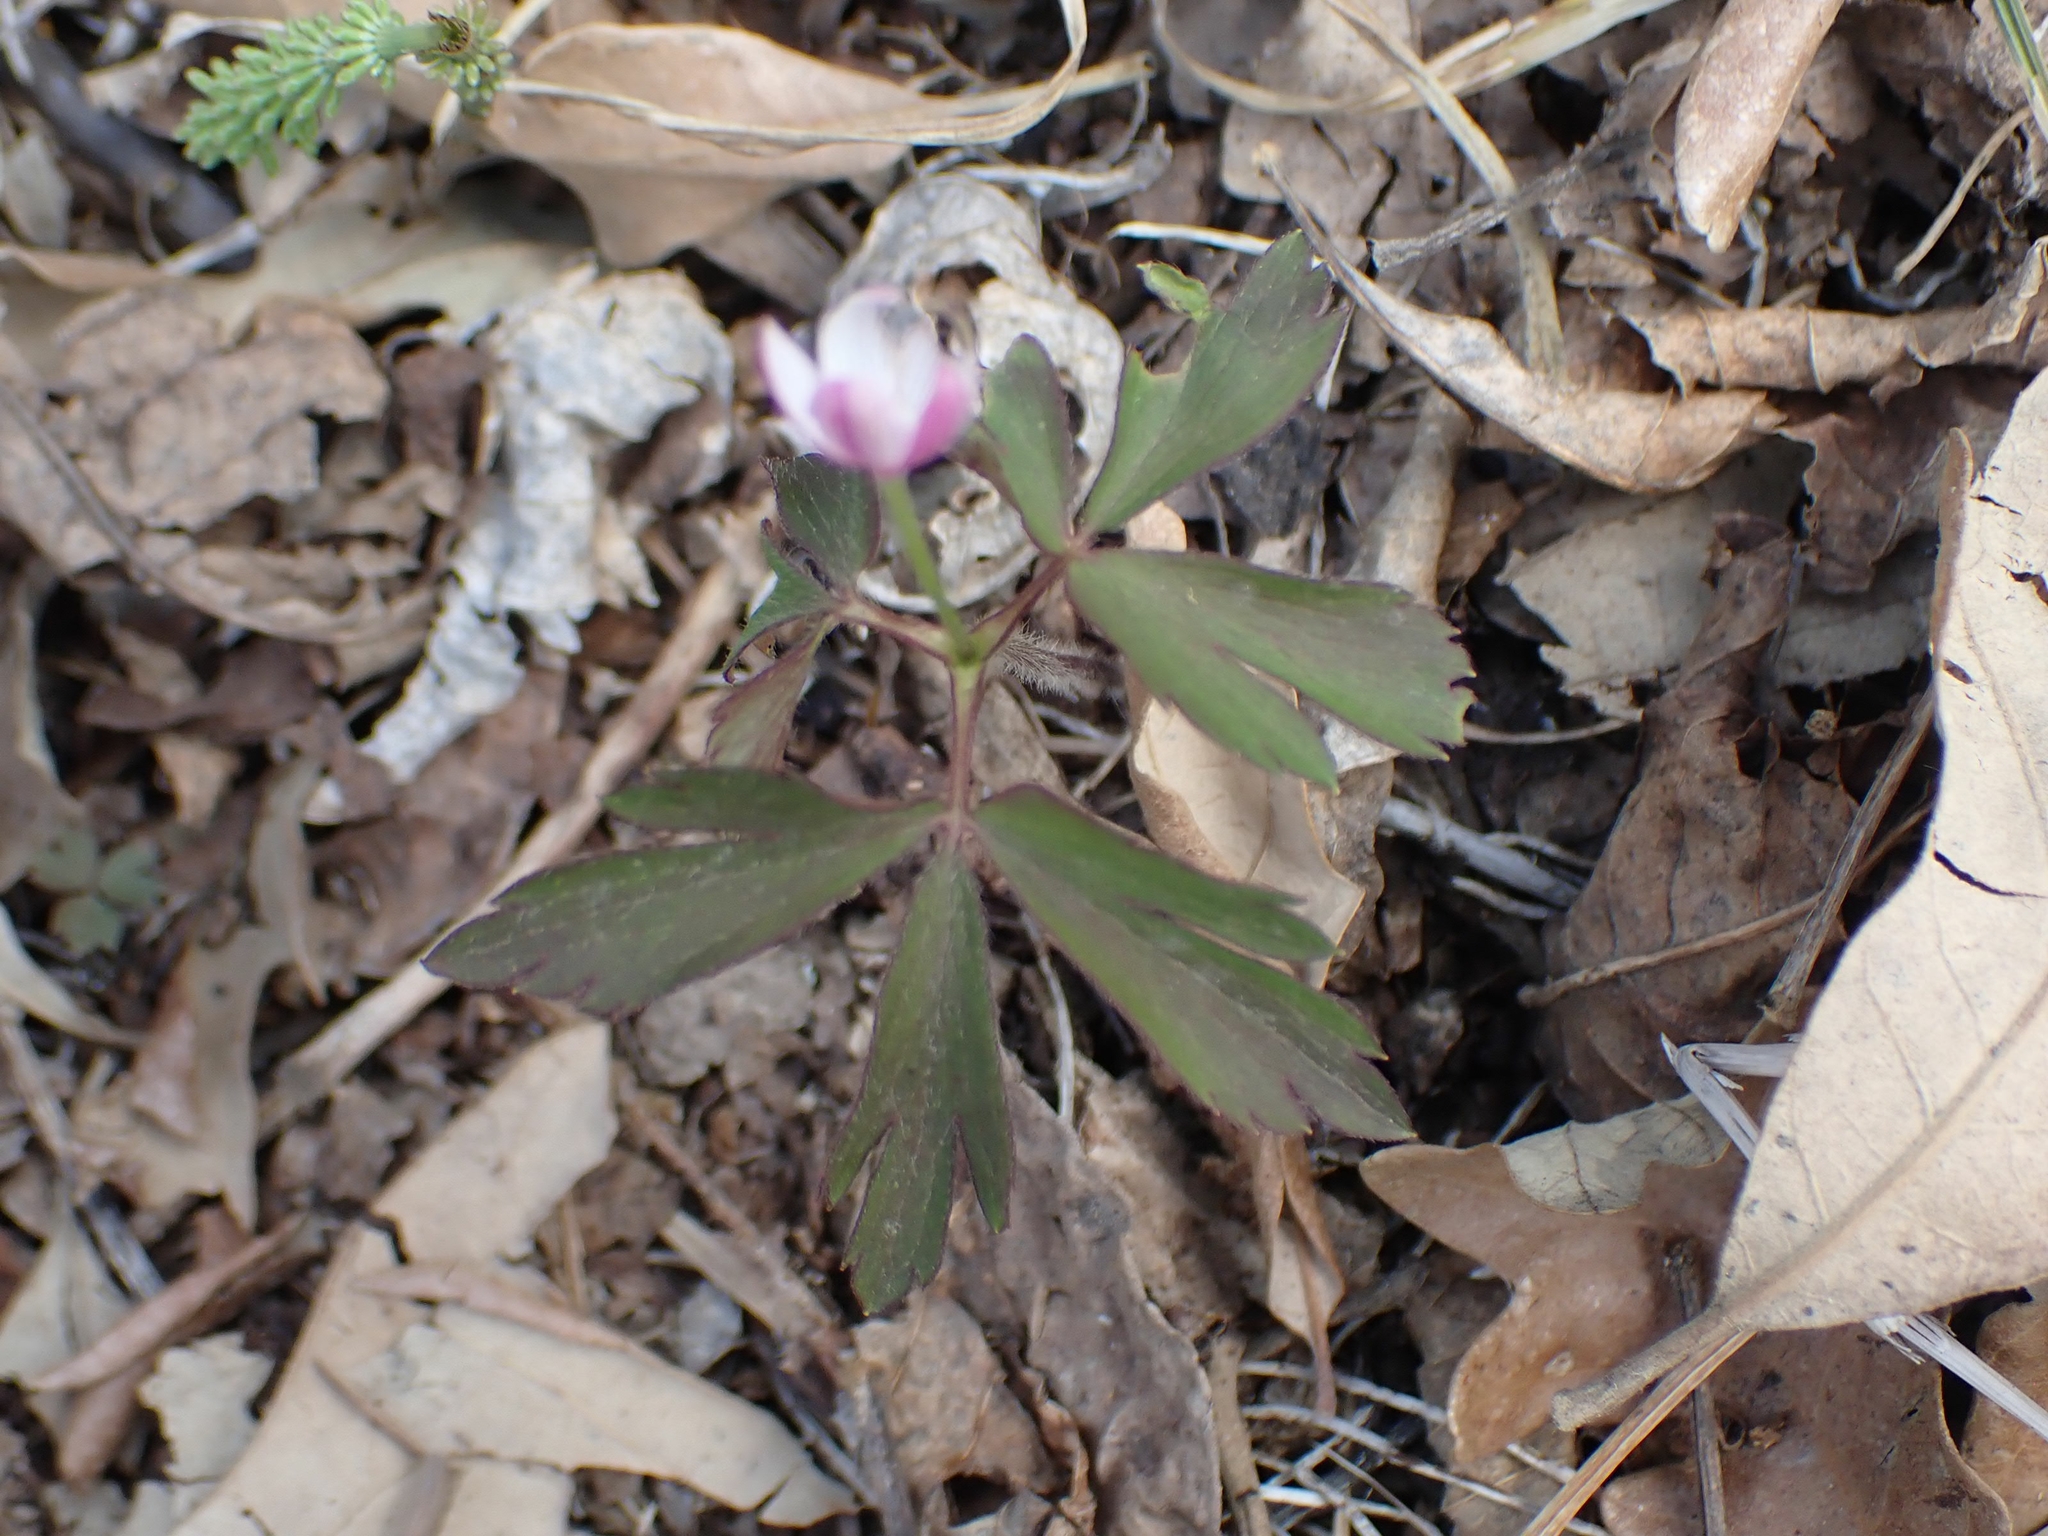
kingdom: Plantae
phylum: Tracheophyta
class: Magnoliopsida
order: Ranunculales
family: Ranunculaceae
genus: Anemone
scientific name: Anemone quinquefolia
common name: Wood anemone
